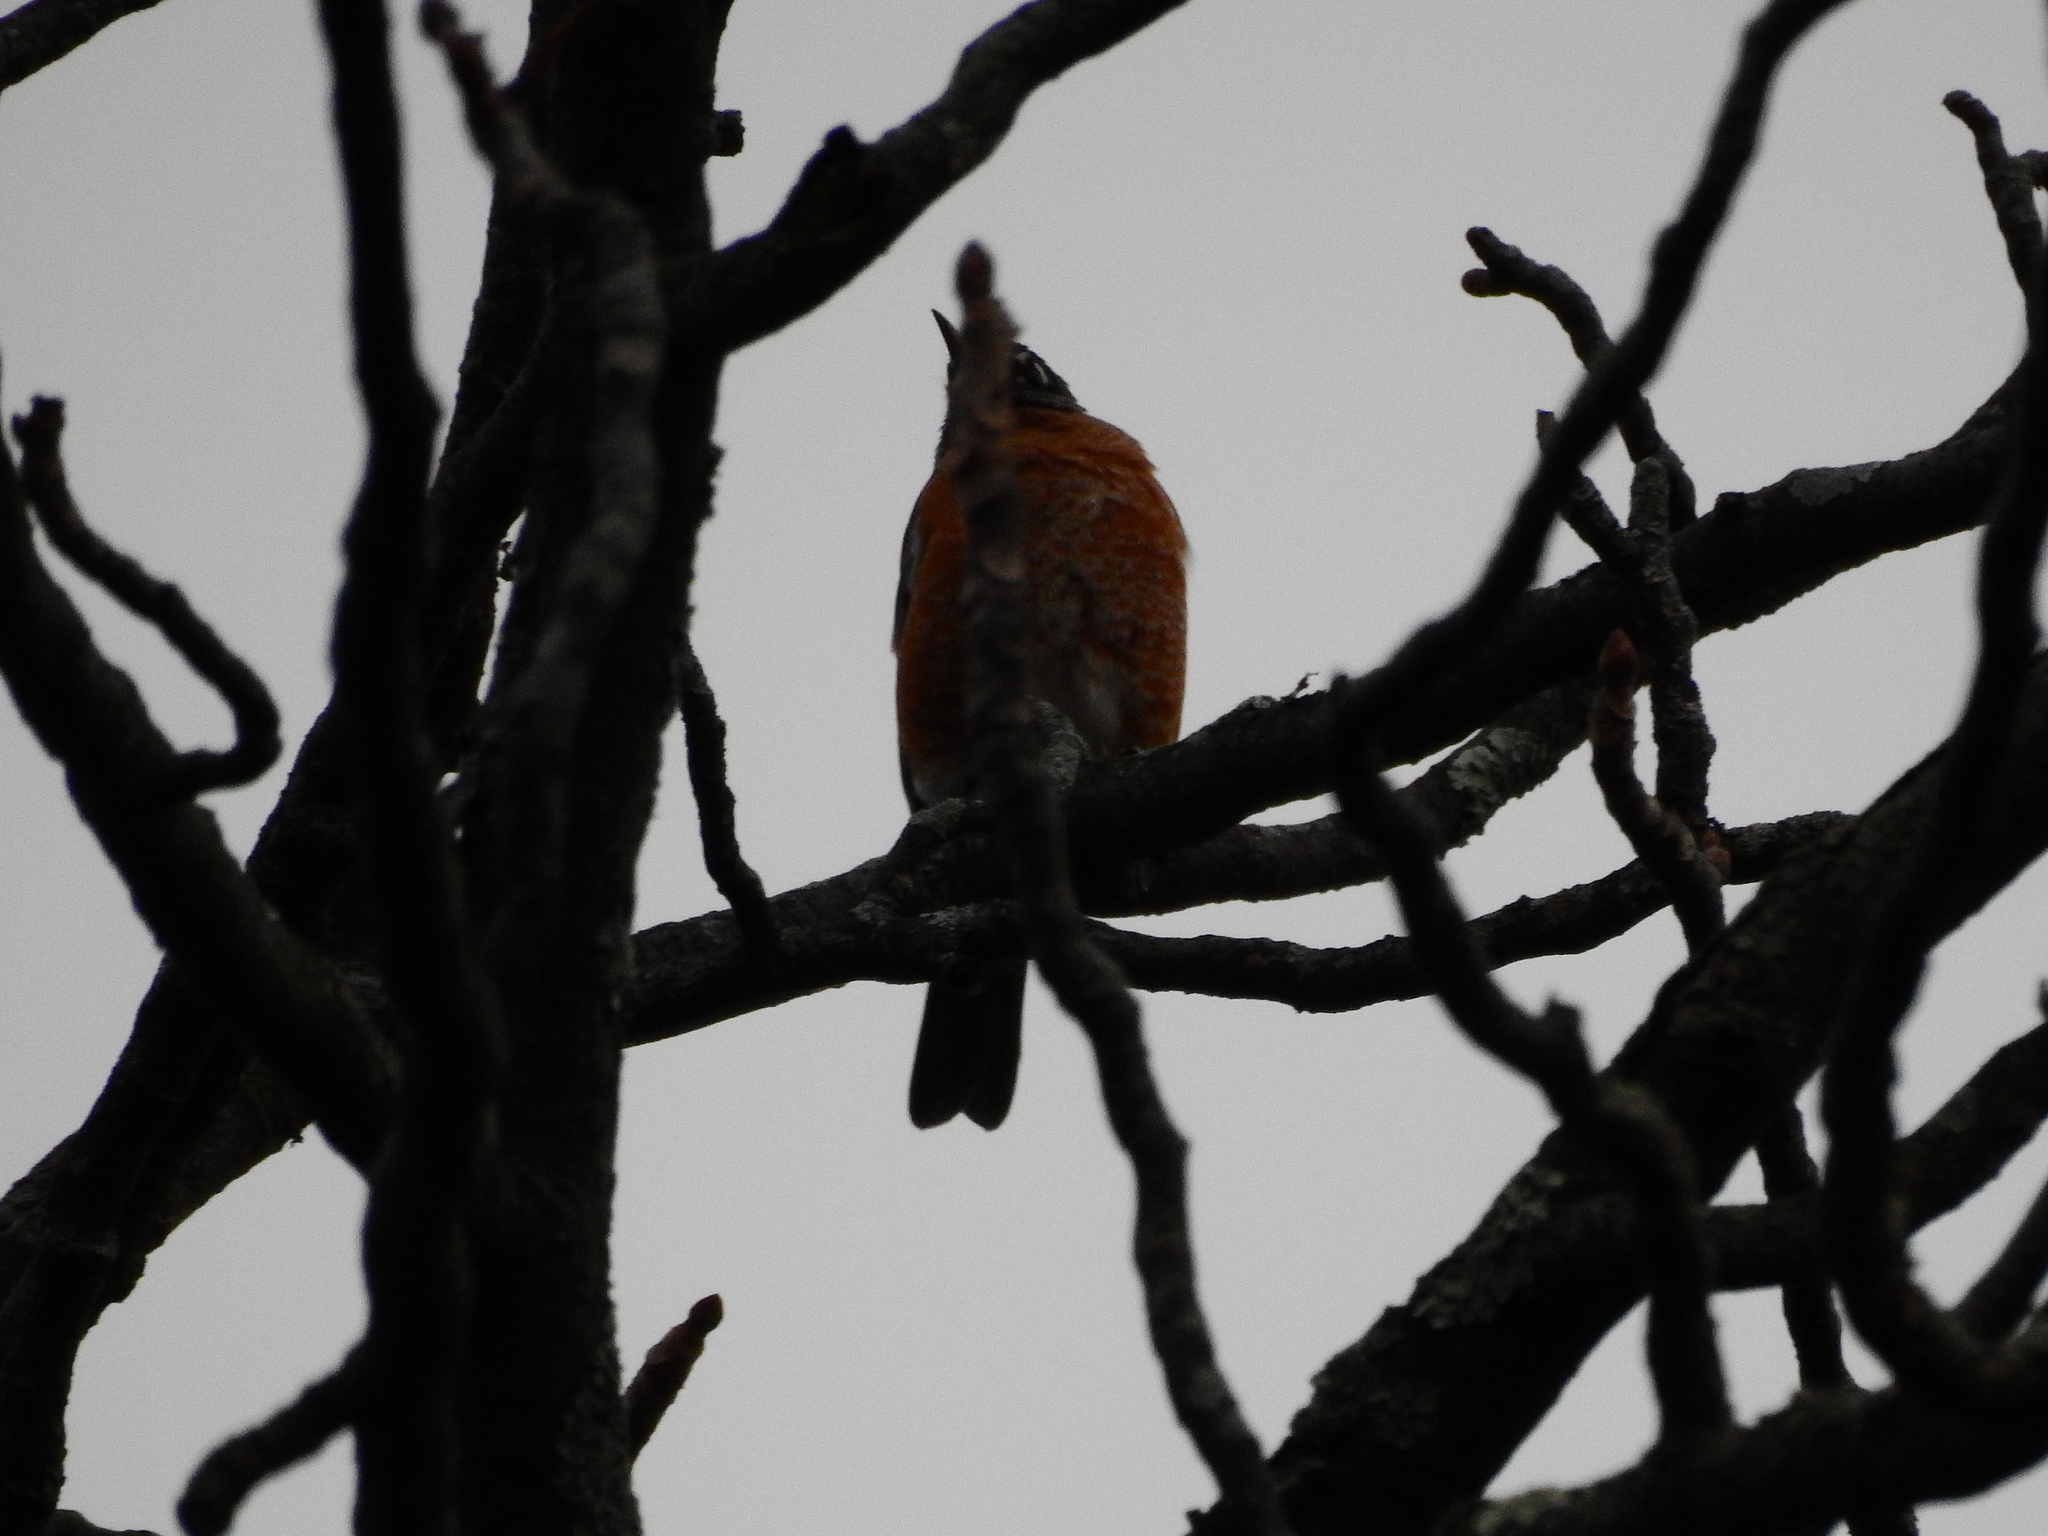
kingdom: Animalia
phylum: Chordata
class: Aves
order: Passeriformes
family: Turdidae
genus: Turdus
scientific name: Turdus migratorius
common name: American robin
